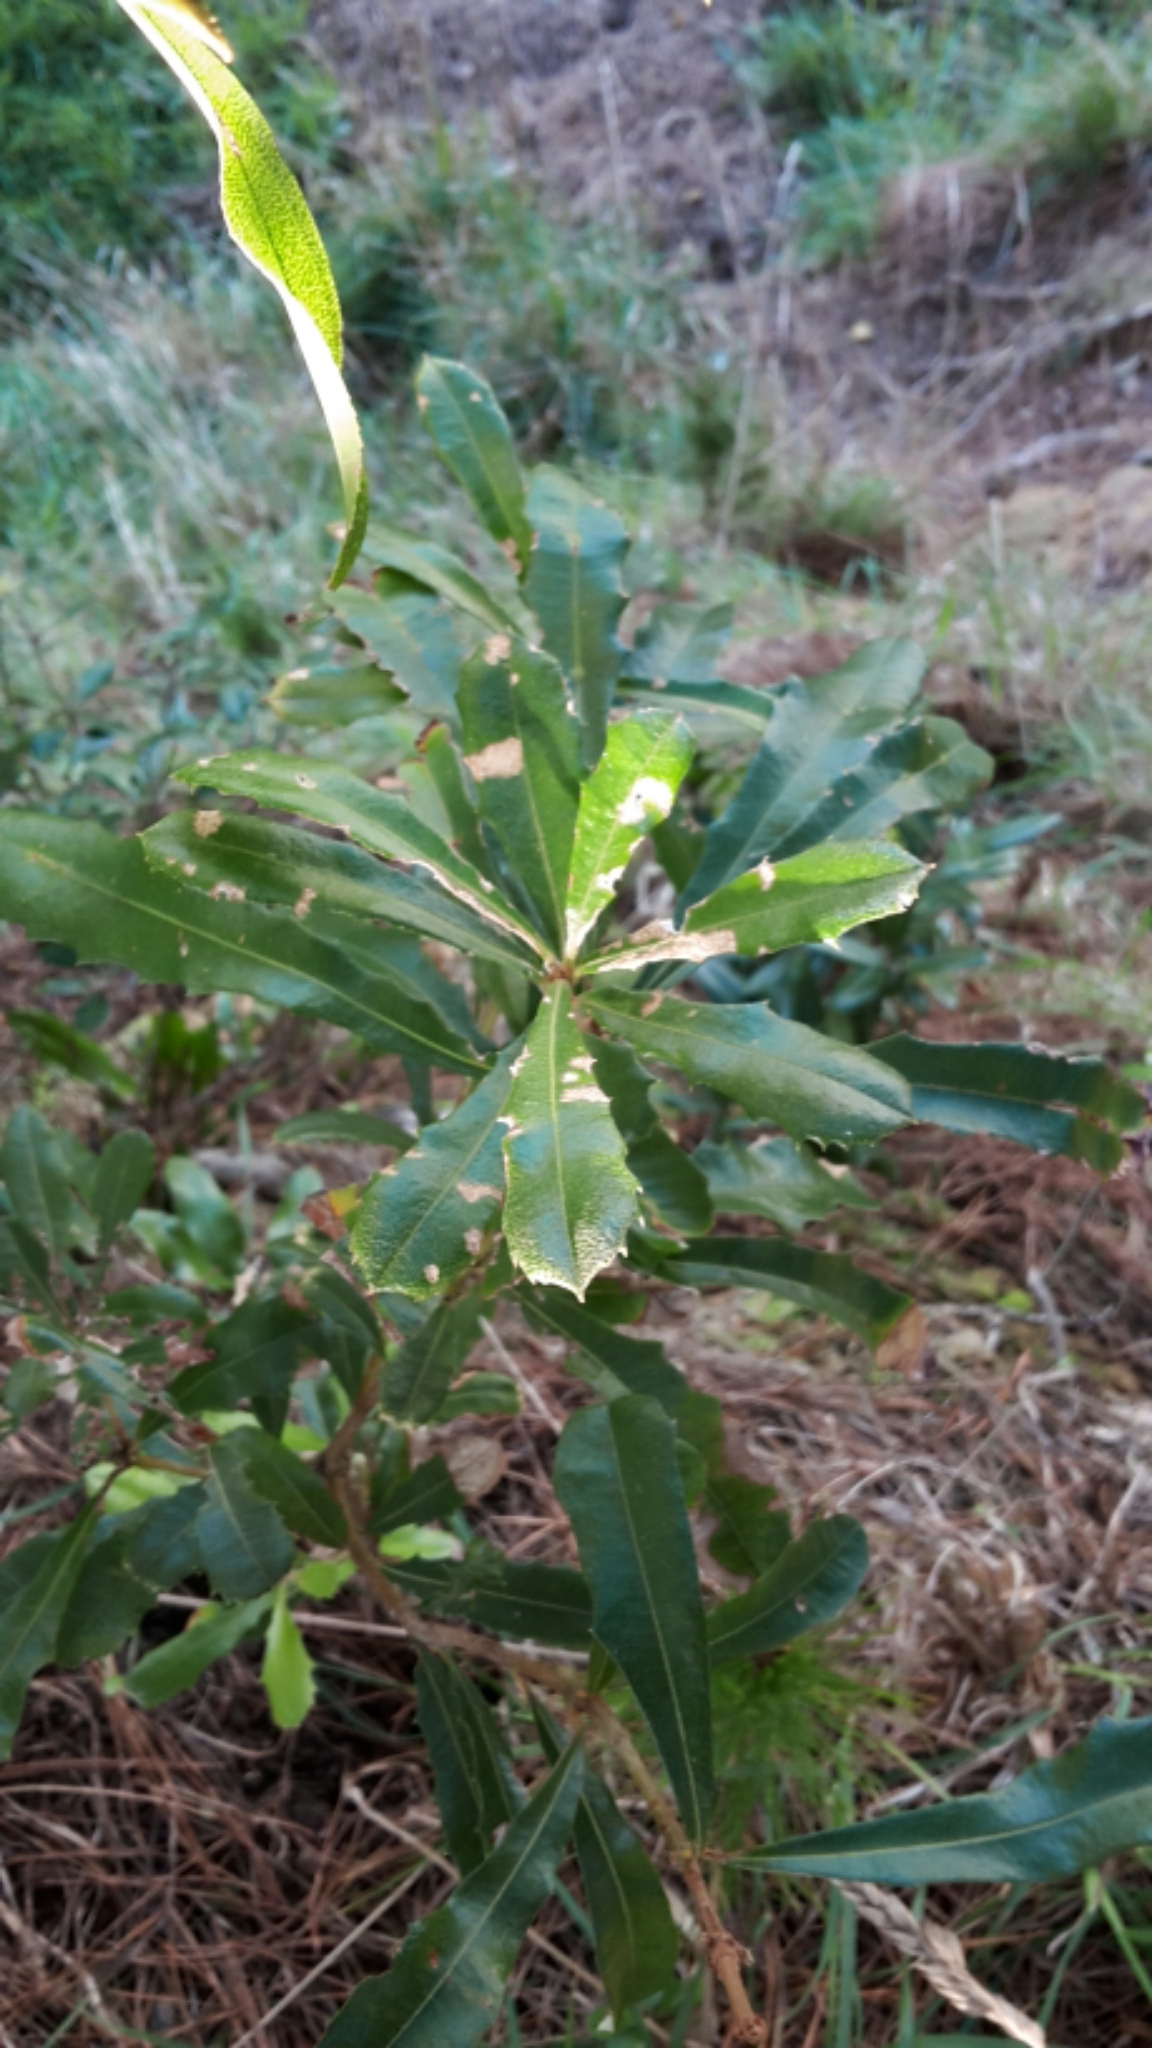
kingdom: Plantae
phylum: Tracheophyta
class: Magnoliopsida
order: Proteales
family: Proteaceae
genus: Banksia
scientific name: Banksia integrifolia
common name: White-honeysuckle
